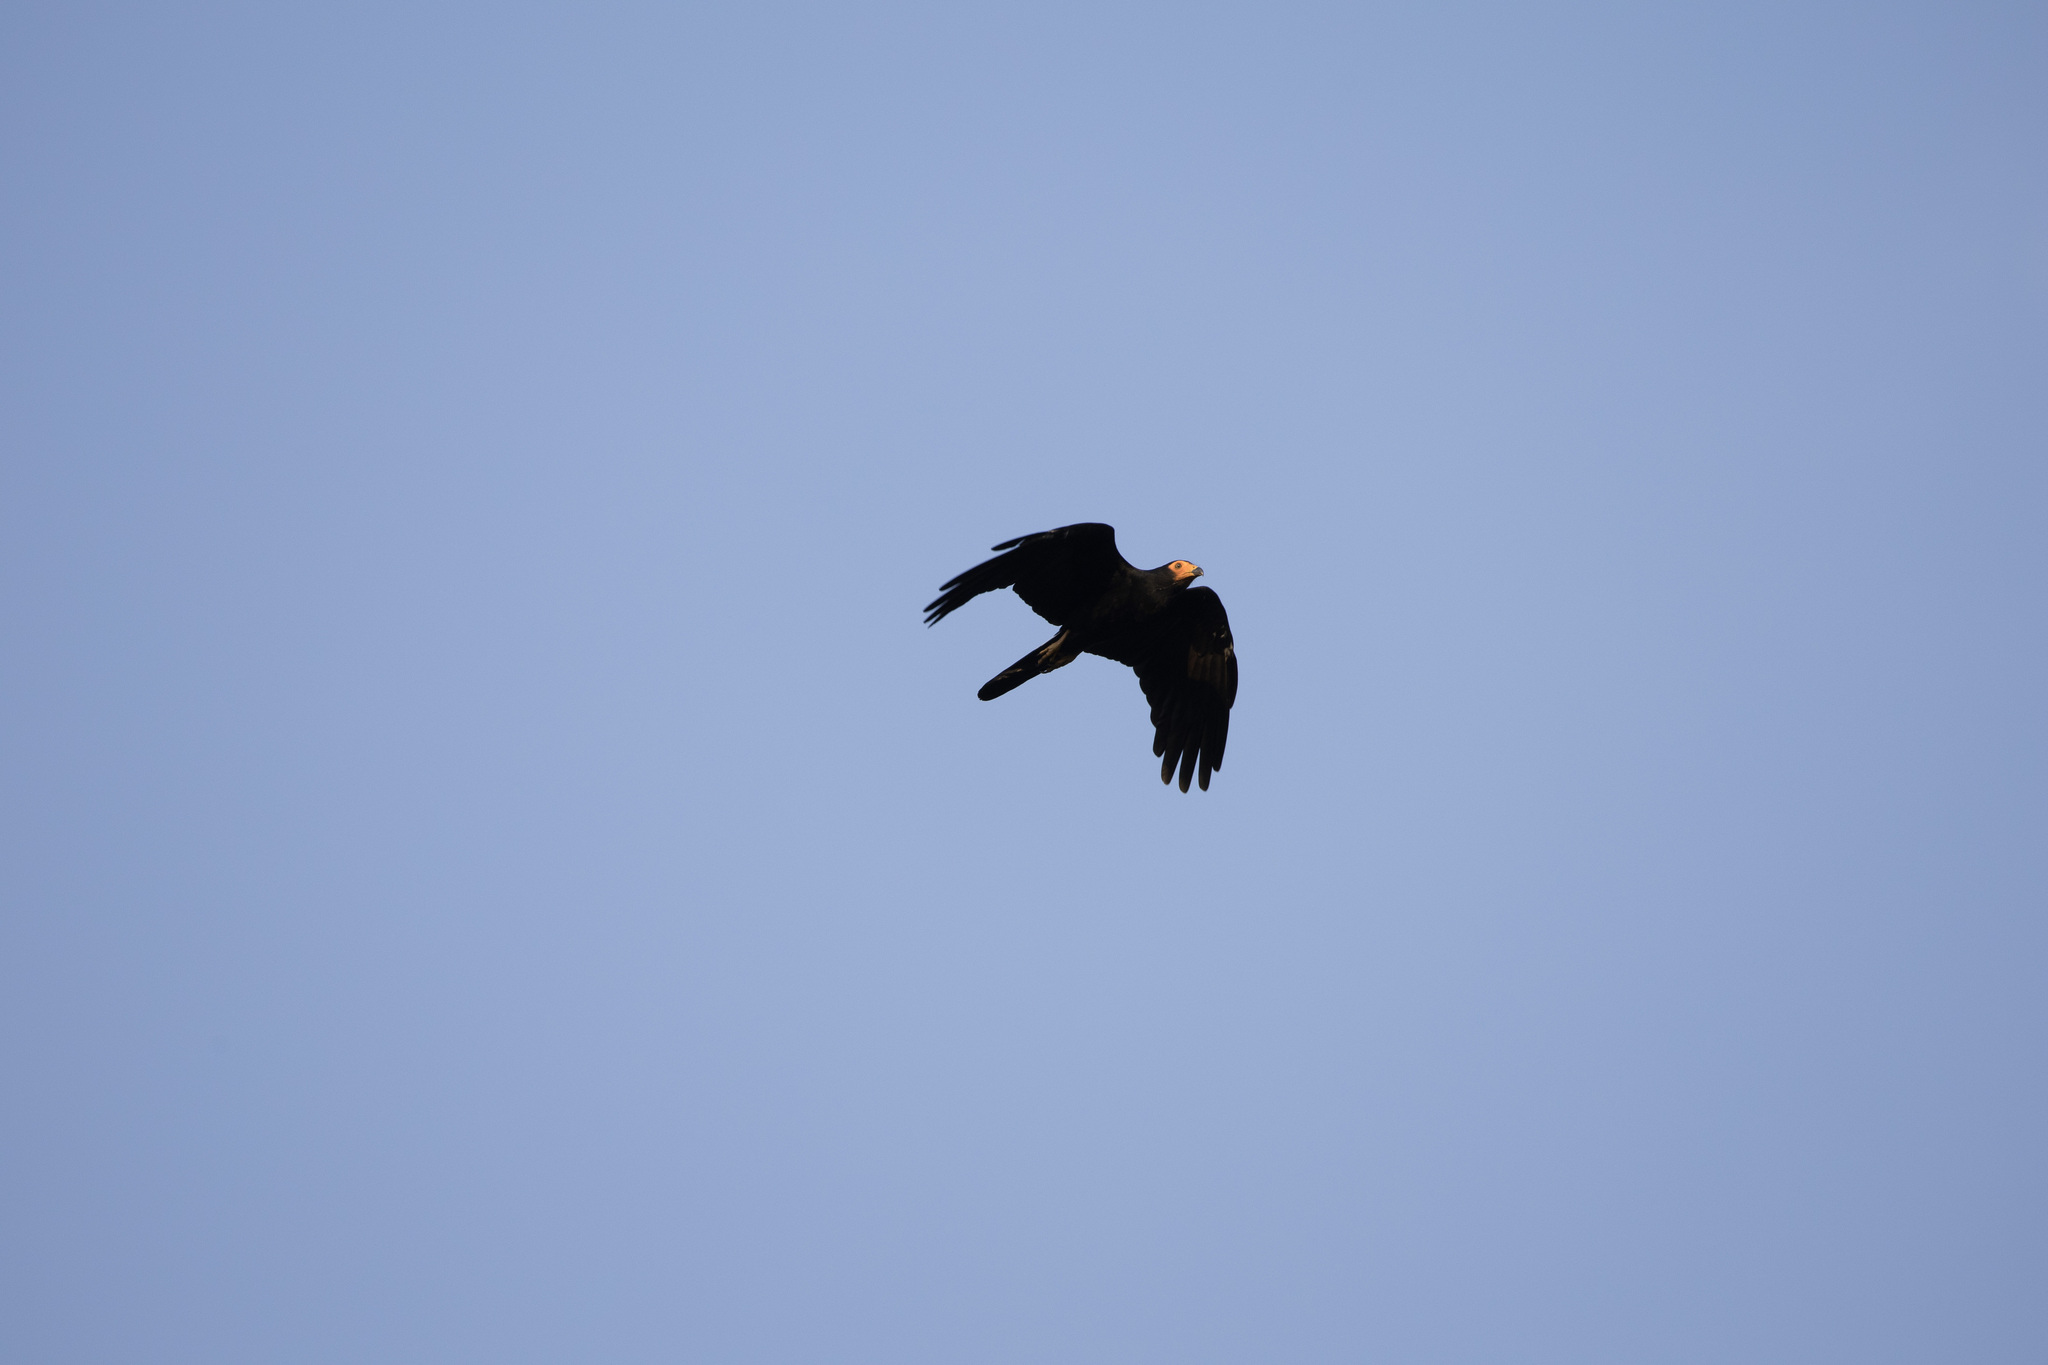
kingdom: Animalia
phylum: Chordata
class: Aves
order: Falconiformes
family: Falconidae
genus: Daptrius
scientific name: Daptrius ater
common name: Black caracara
